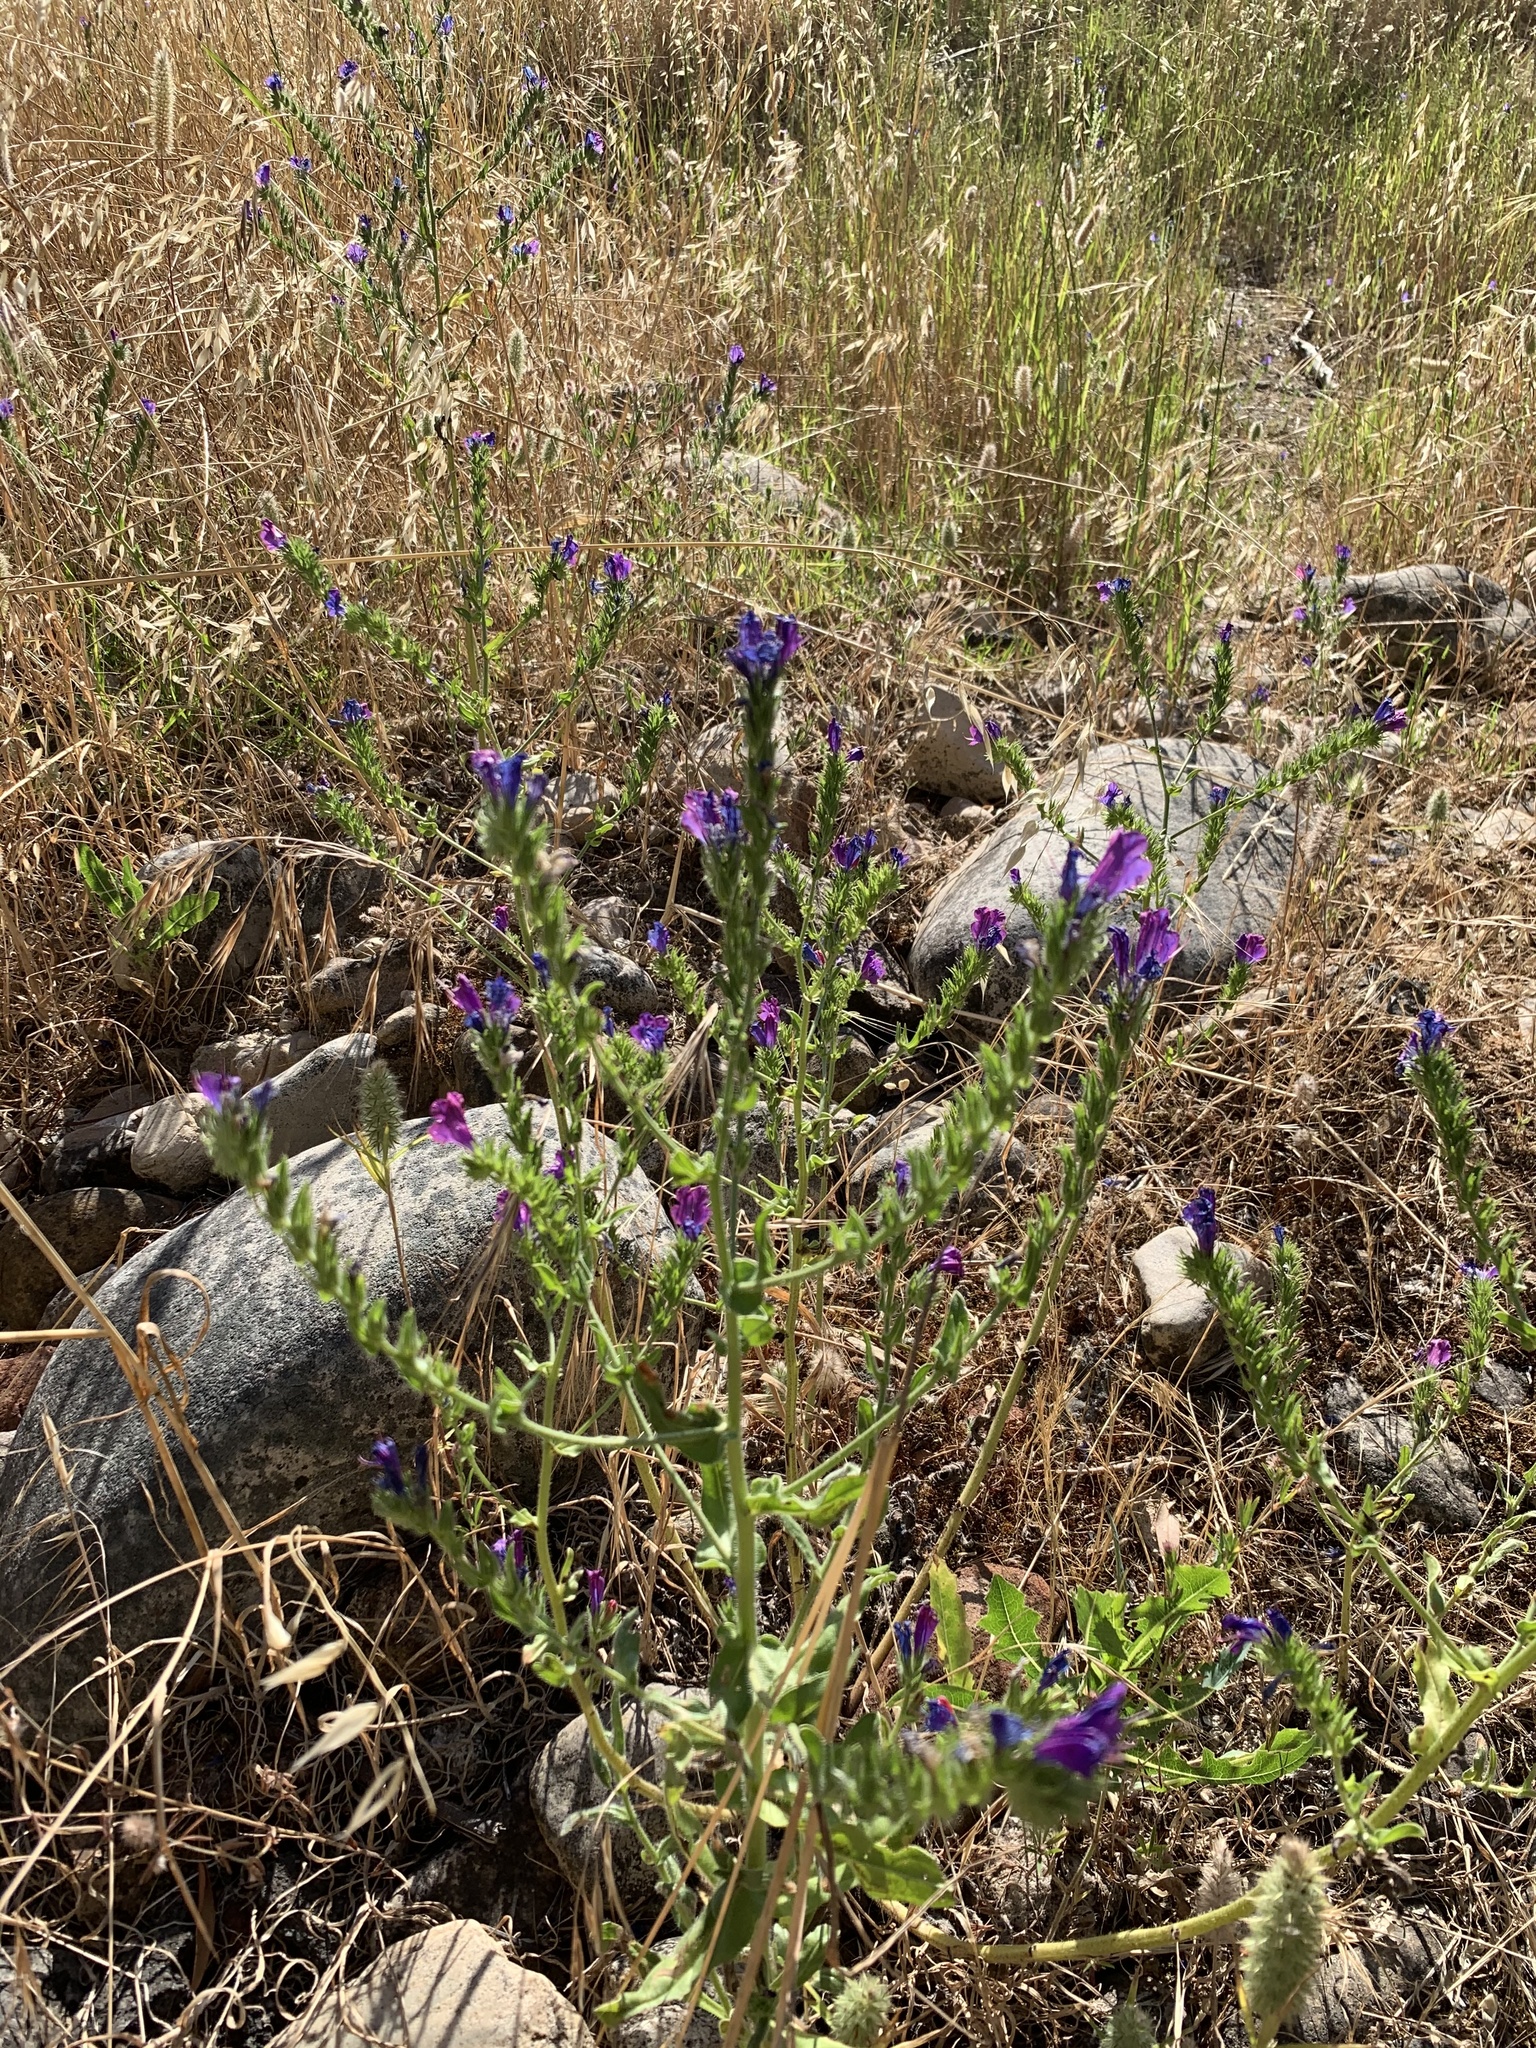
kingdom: Plantae
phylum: Tracheophyta
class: Magnoliopsida
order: Boraginales
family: Boraginaceae
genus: Echium
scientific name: Echium plantagineum
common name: Purple viper's-bugloss
